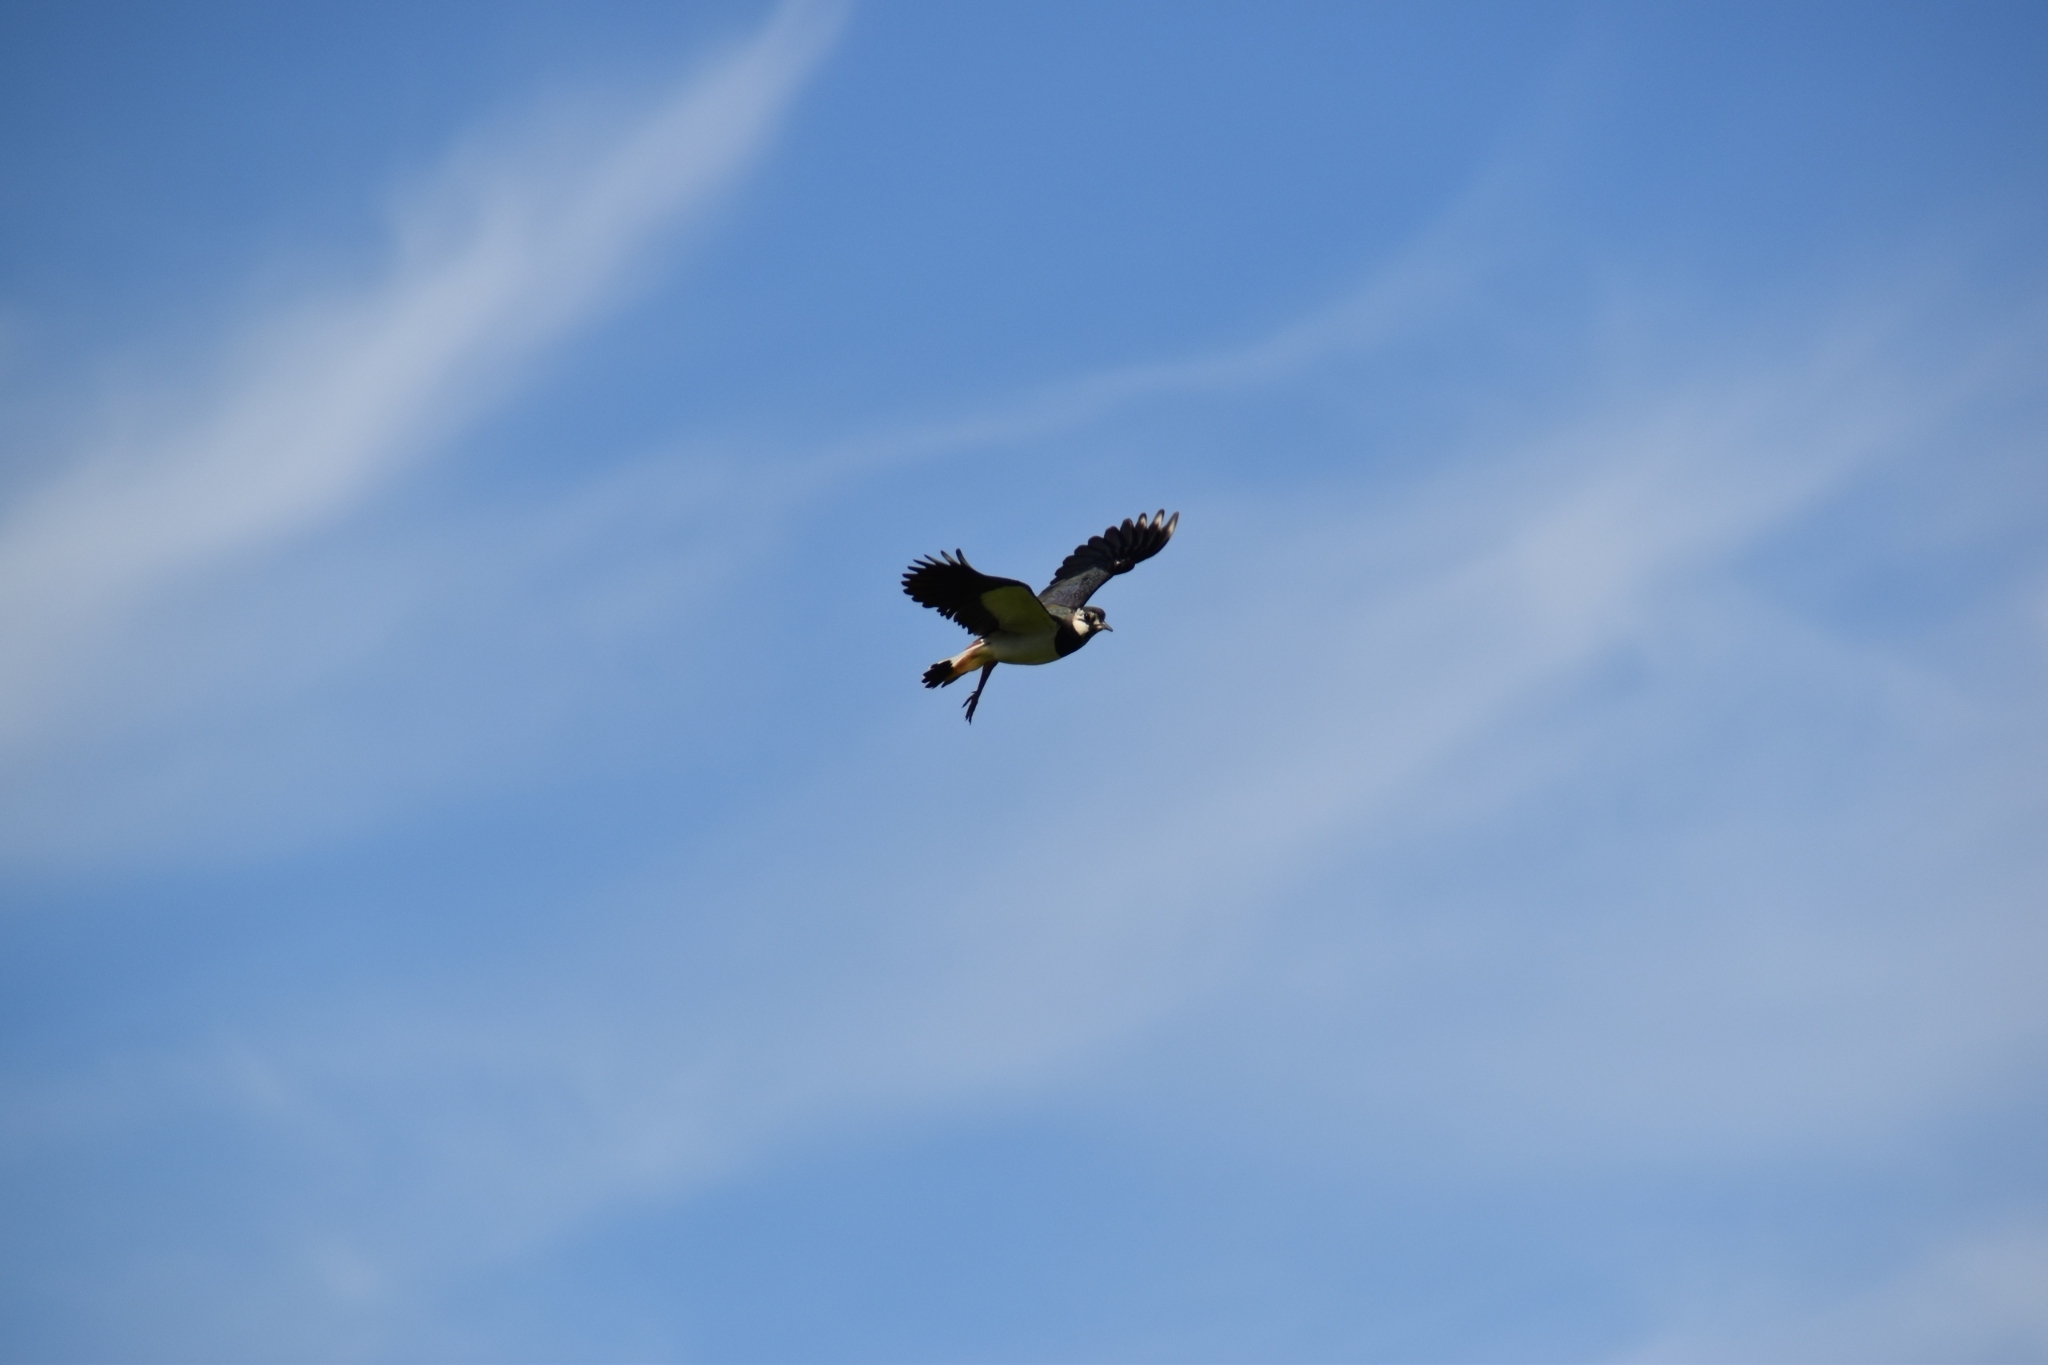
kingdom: Animalia
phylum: Chordata
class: Aves
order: Charadriiformes
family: Charadriidae
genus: Vanellus
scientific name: Vanellus vanellus
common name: Northern lapwing
